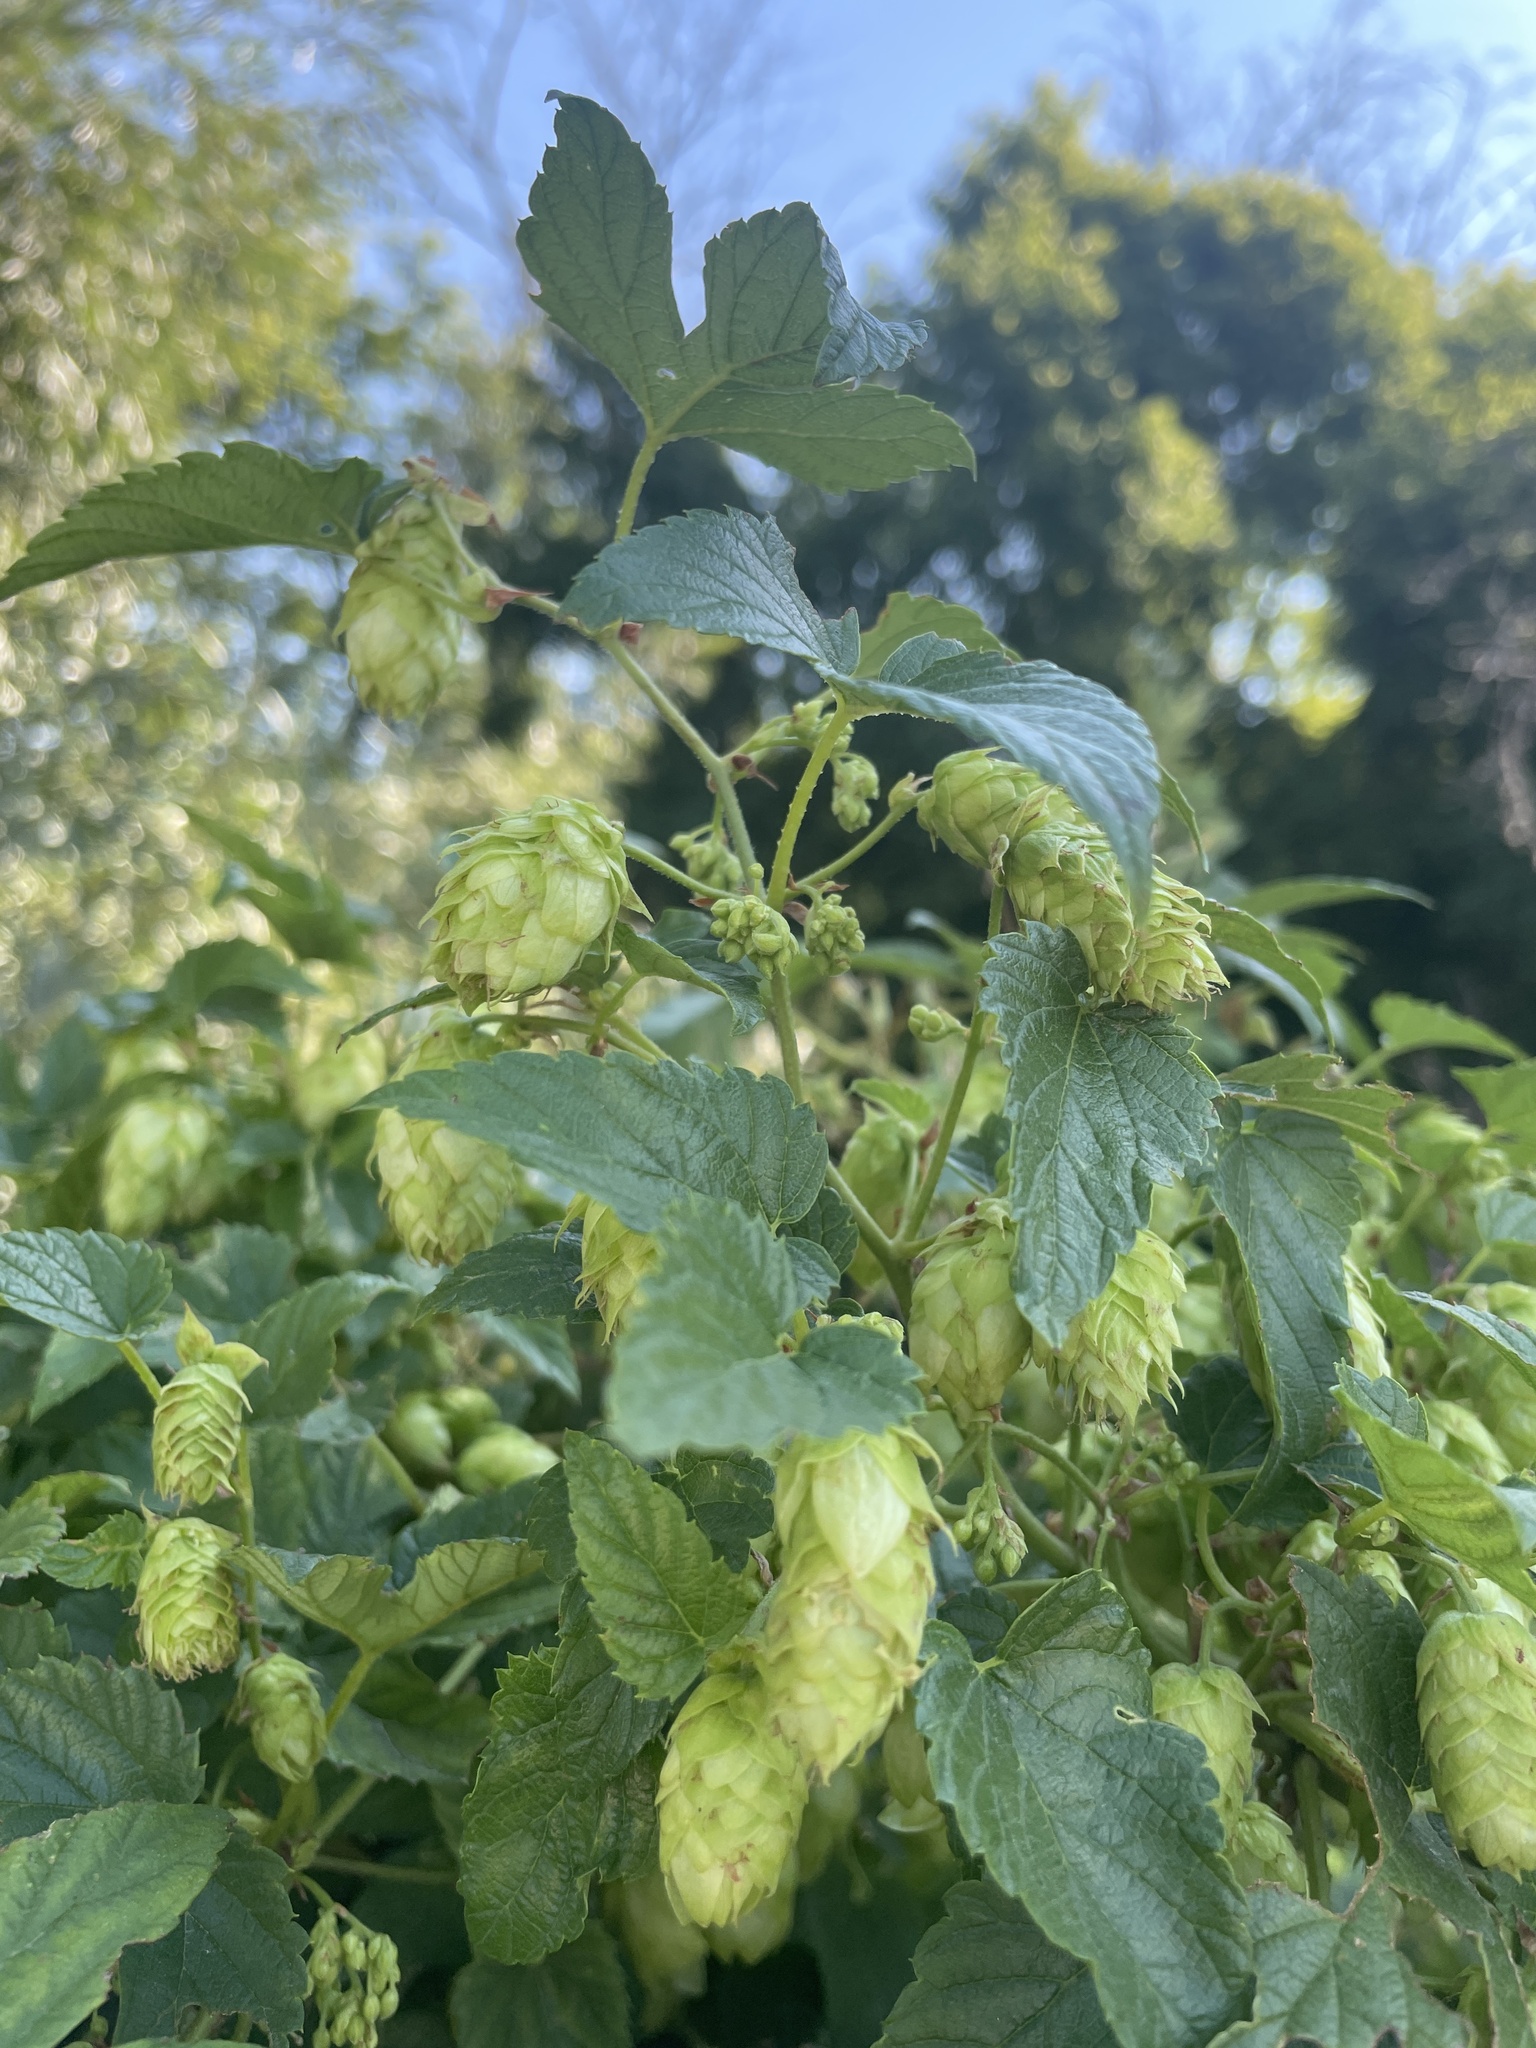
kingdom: Plantae
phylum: Tracheophyta
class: Magnoliopsida
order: Rosales
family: Cannabaceae
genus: Humulus
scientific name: Humulus lupulus
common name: Hop
